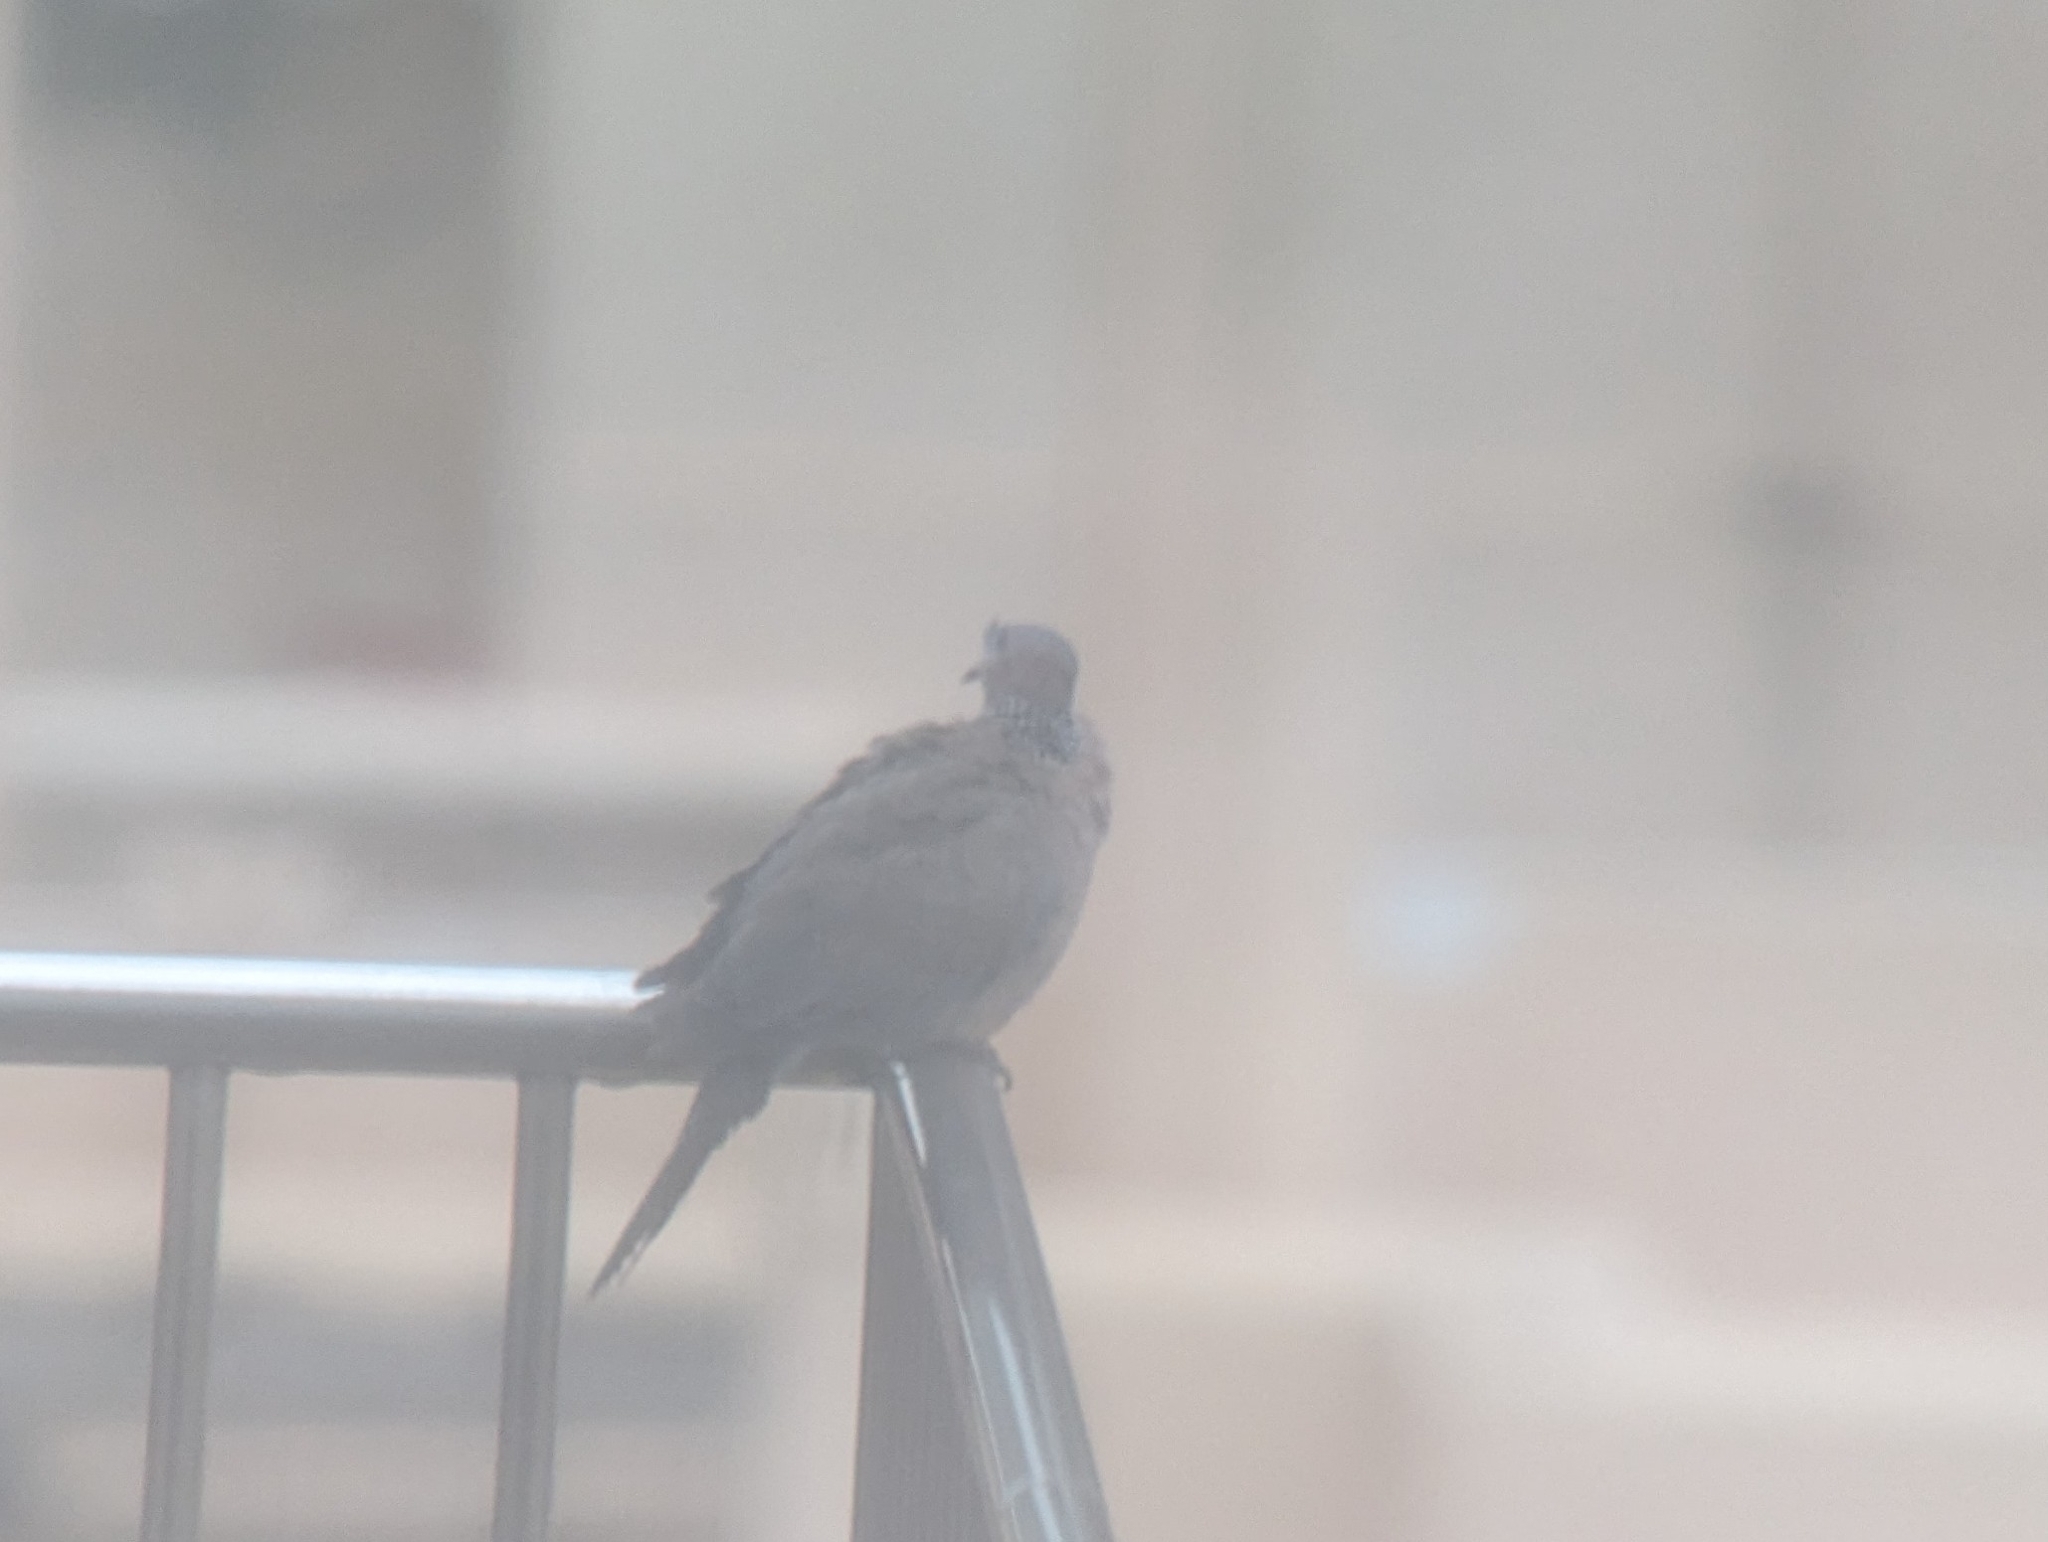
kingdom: Animalia
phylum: Chordata
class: Aves
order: Columbiformes
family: Columbidae
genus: Spilopelia
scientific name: Spilopelia chinensis
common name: Spotted dove
